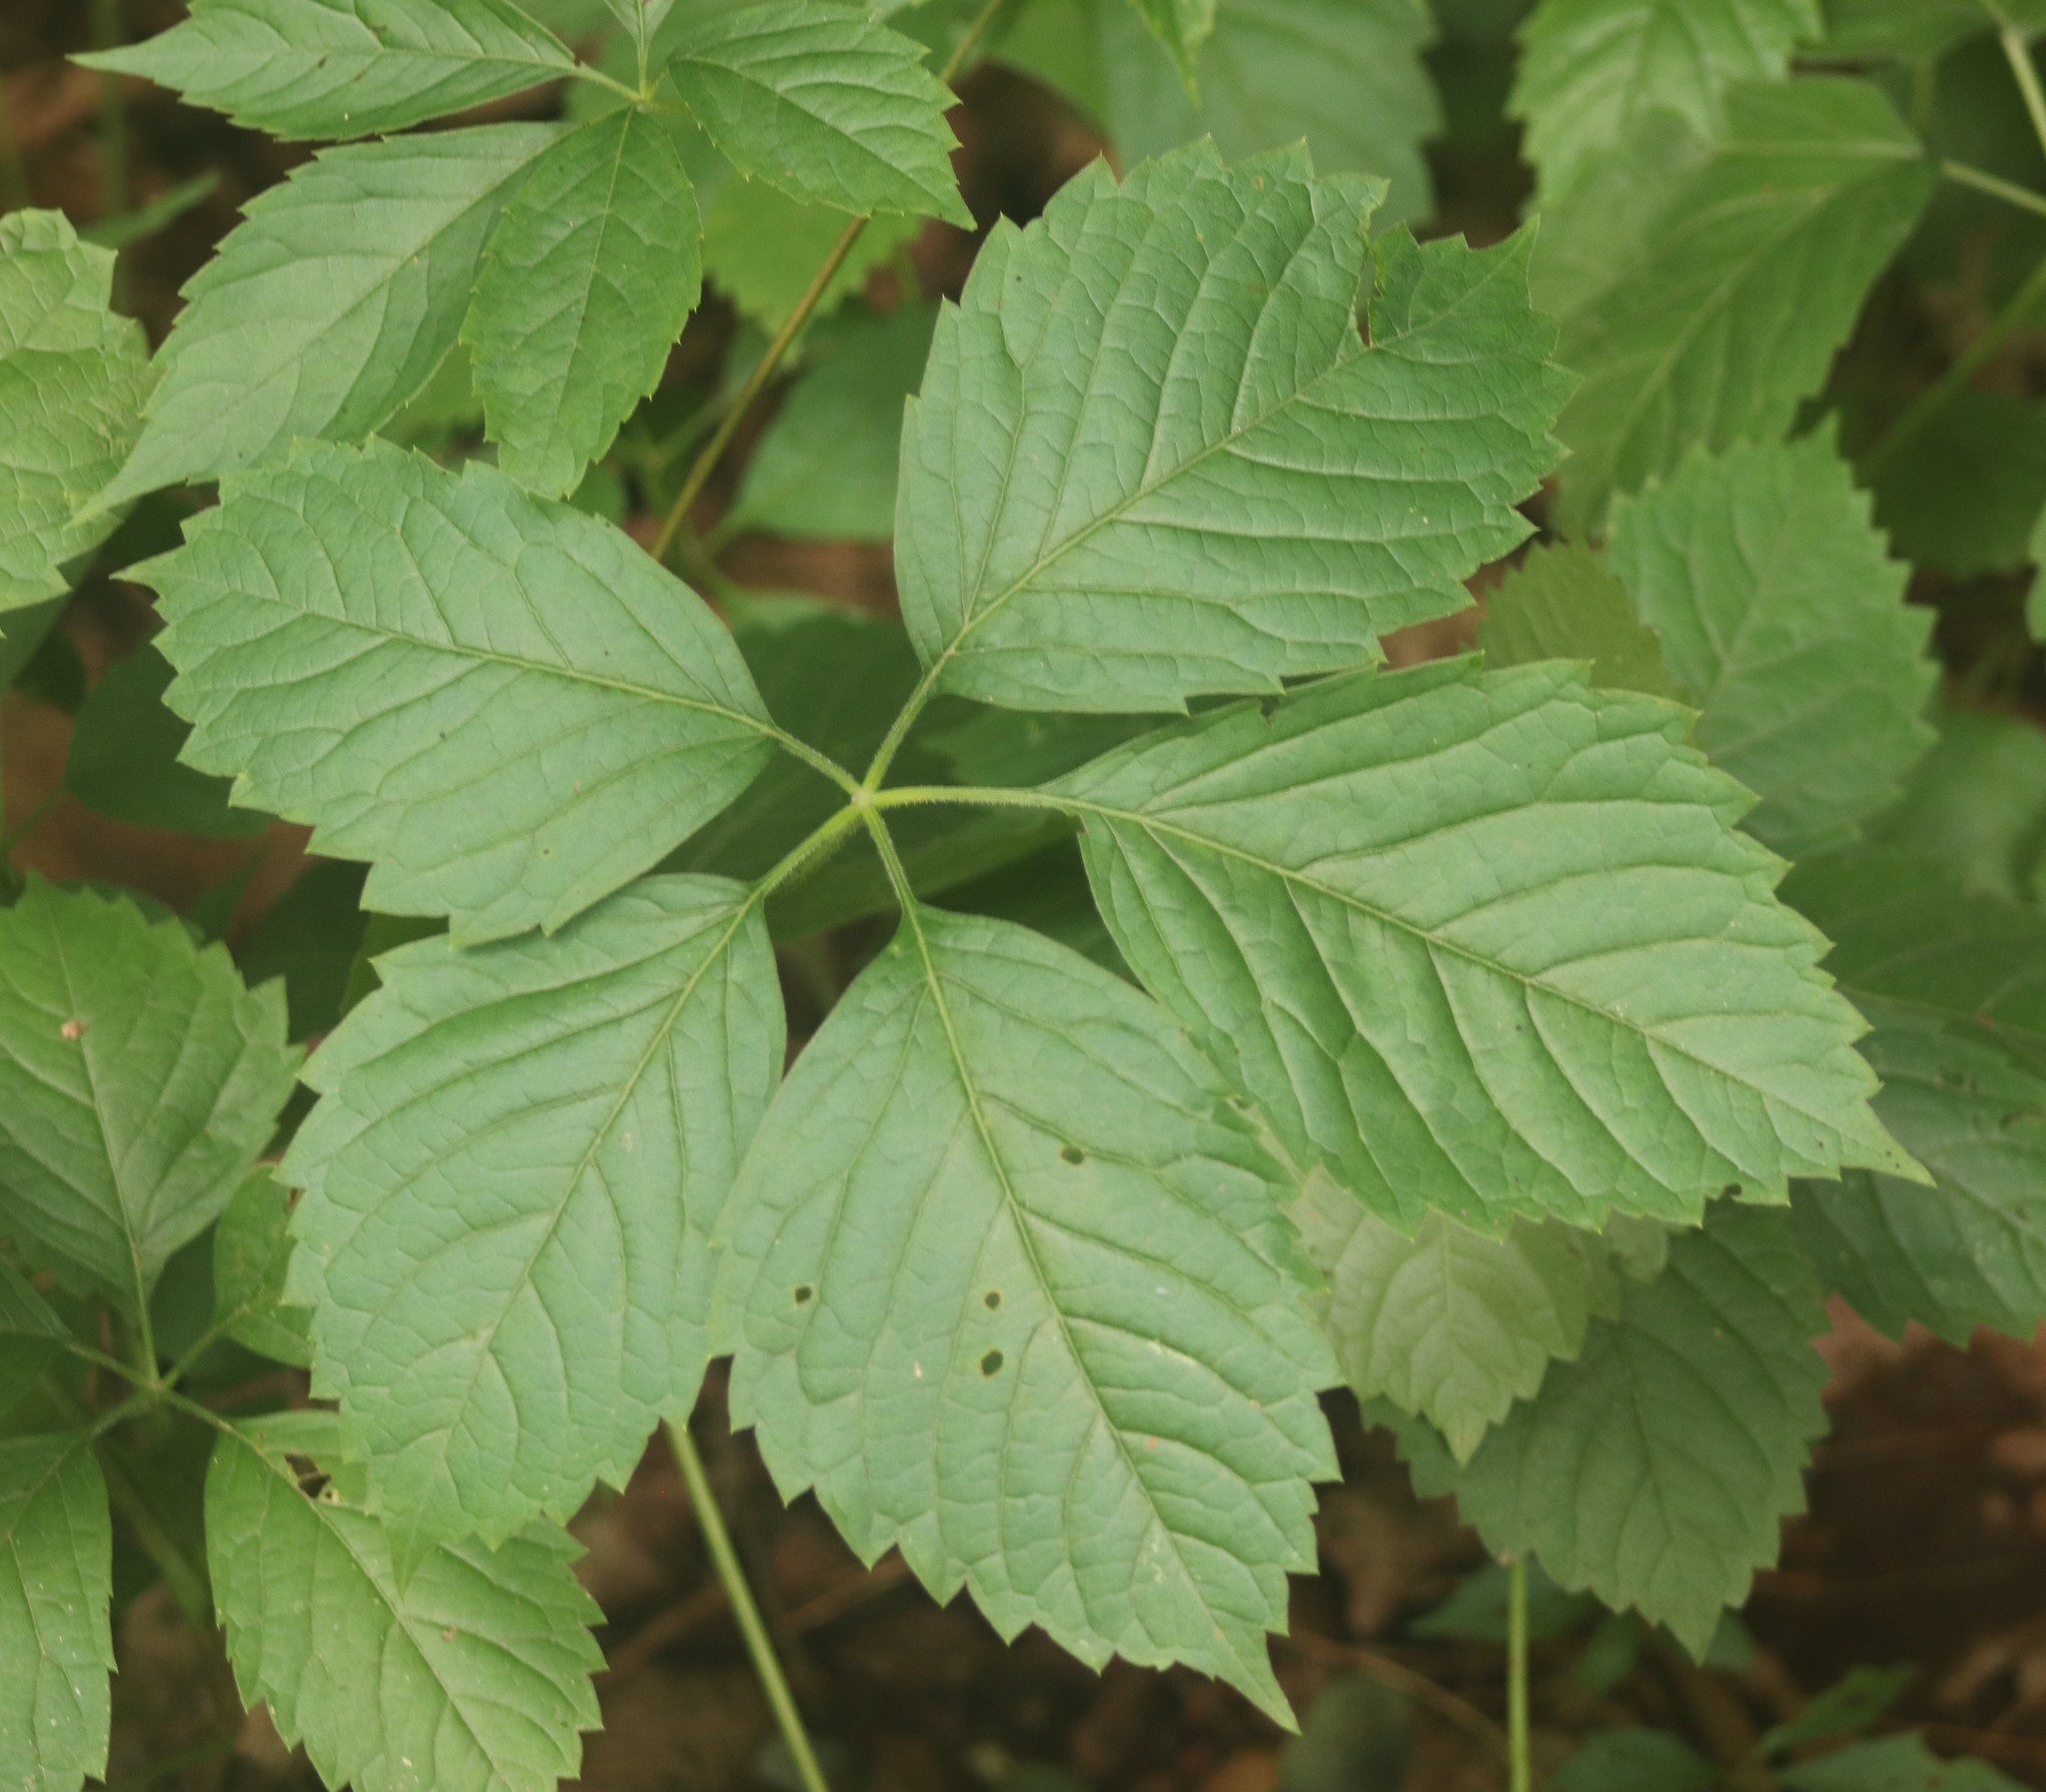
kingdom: Plantae
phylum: Tracheophyta
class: Magnoliopsida
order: Vitales
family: Vitaceae
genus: Parthenocissus
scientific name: Parthenocissus inserta
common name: False virginia-creeper
